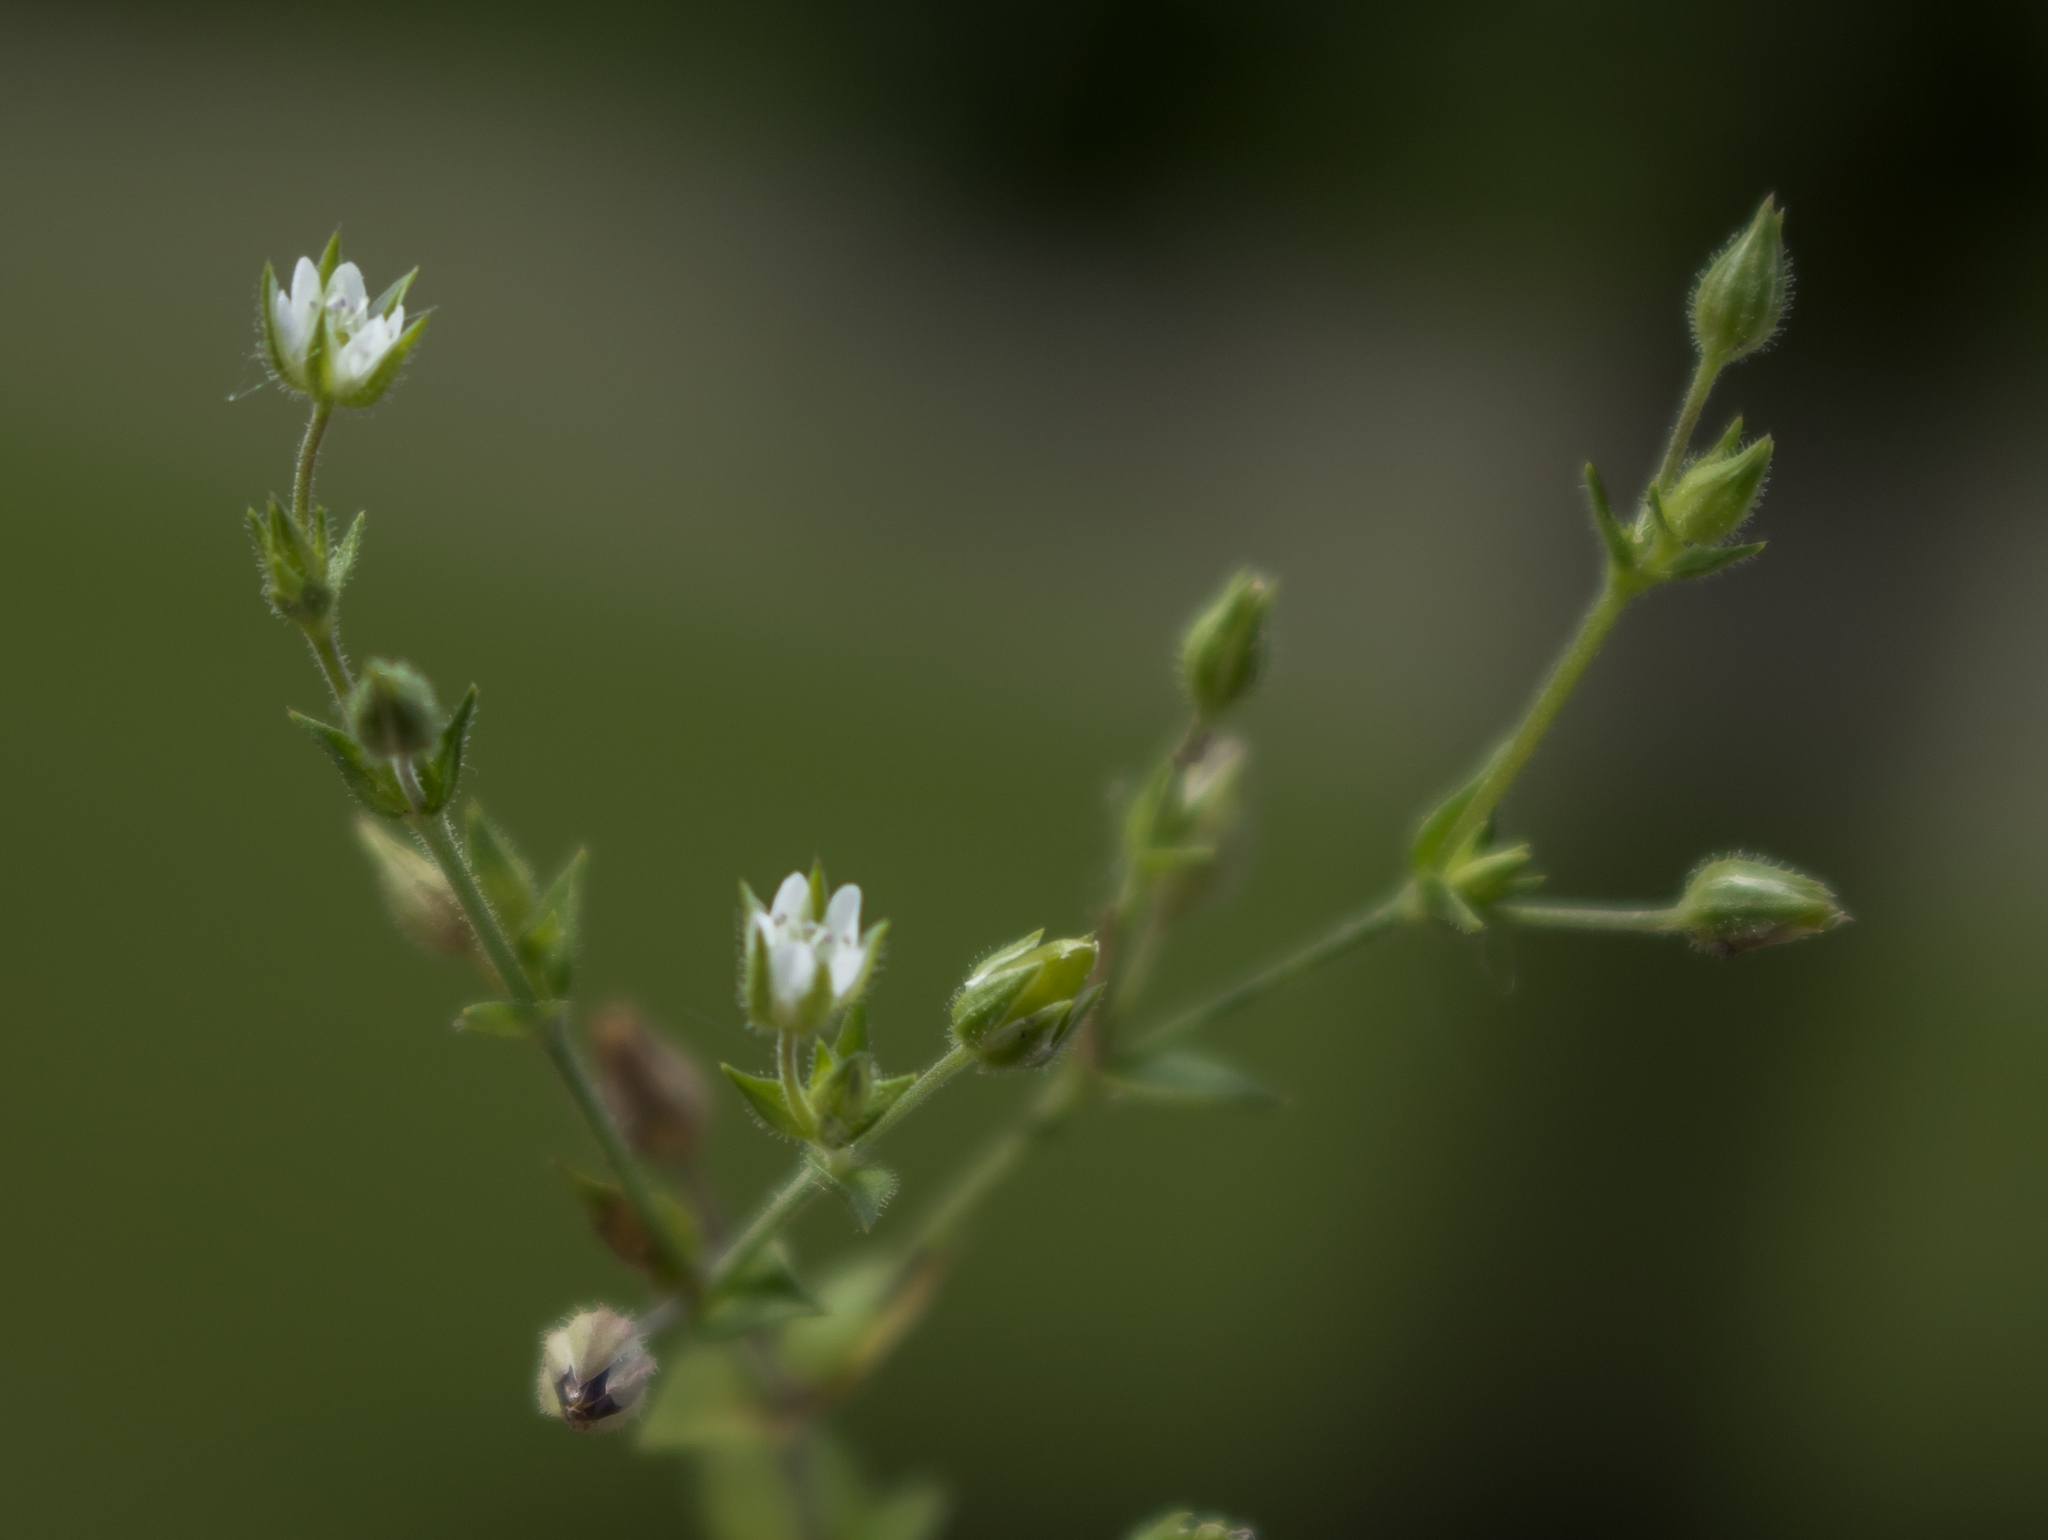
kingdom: Plantae
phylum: Tracheophyta
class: Magnoliopsida
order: Caryophyllales
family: Caryophyllaceae
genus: Arenaria
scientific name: Arenaria serpyllifolia
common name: Thyme-leaved sandwort
